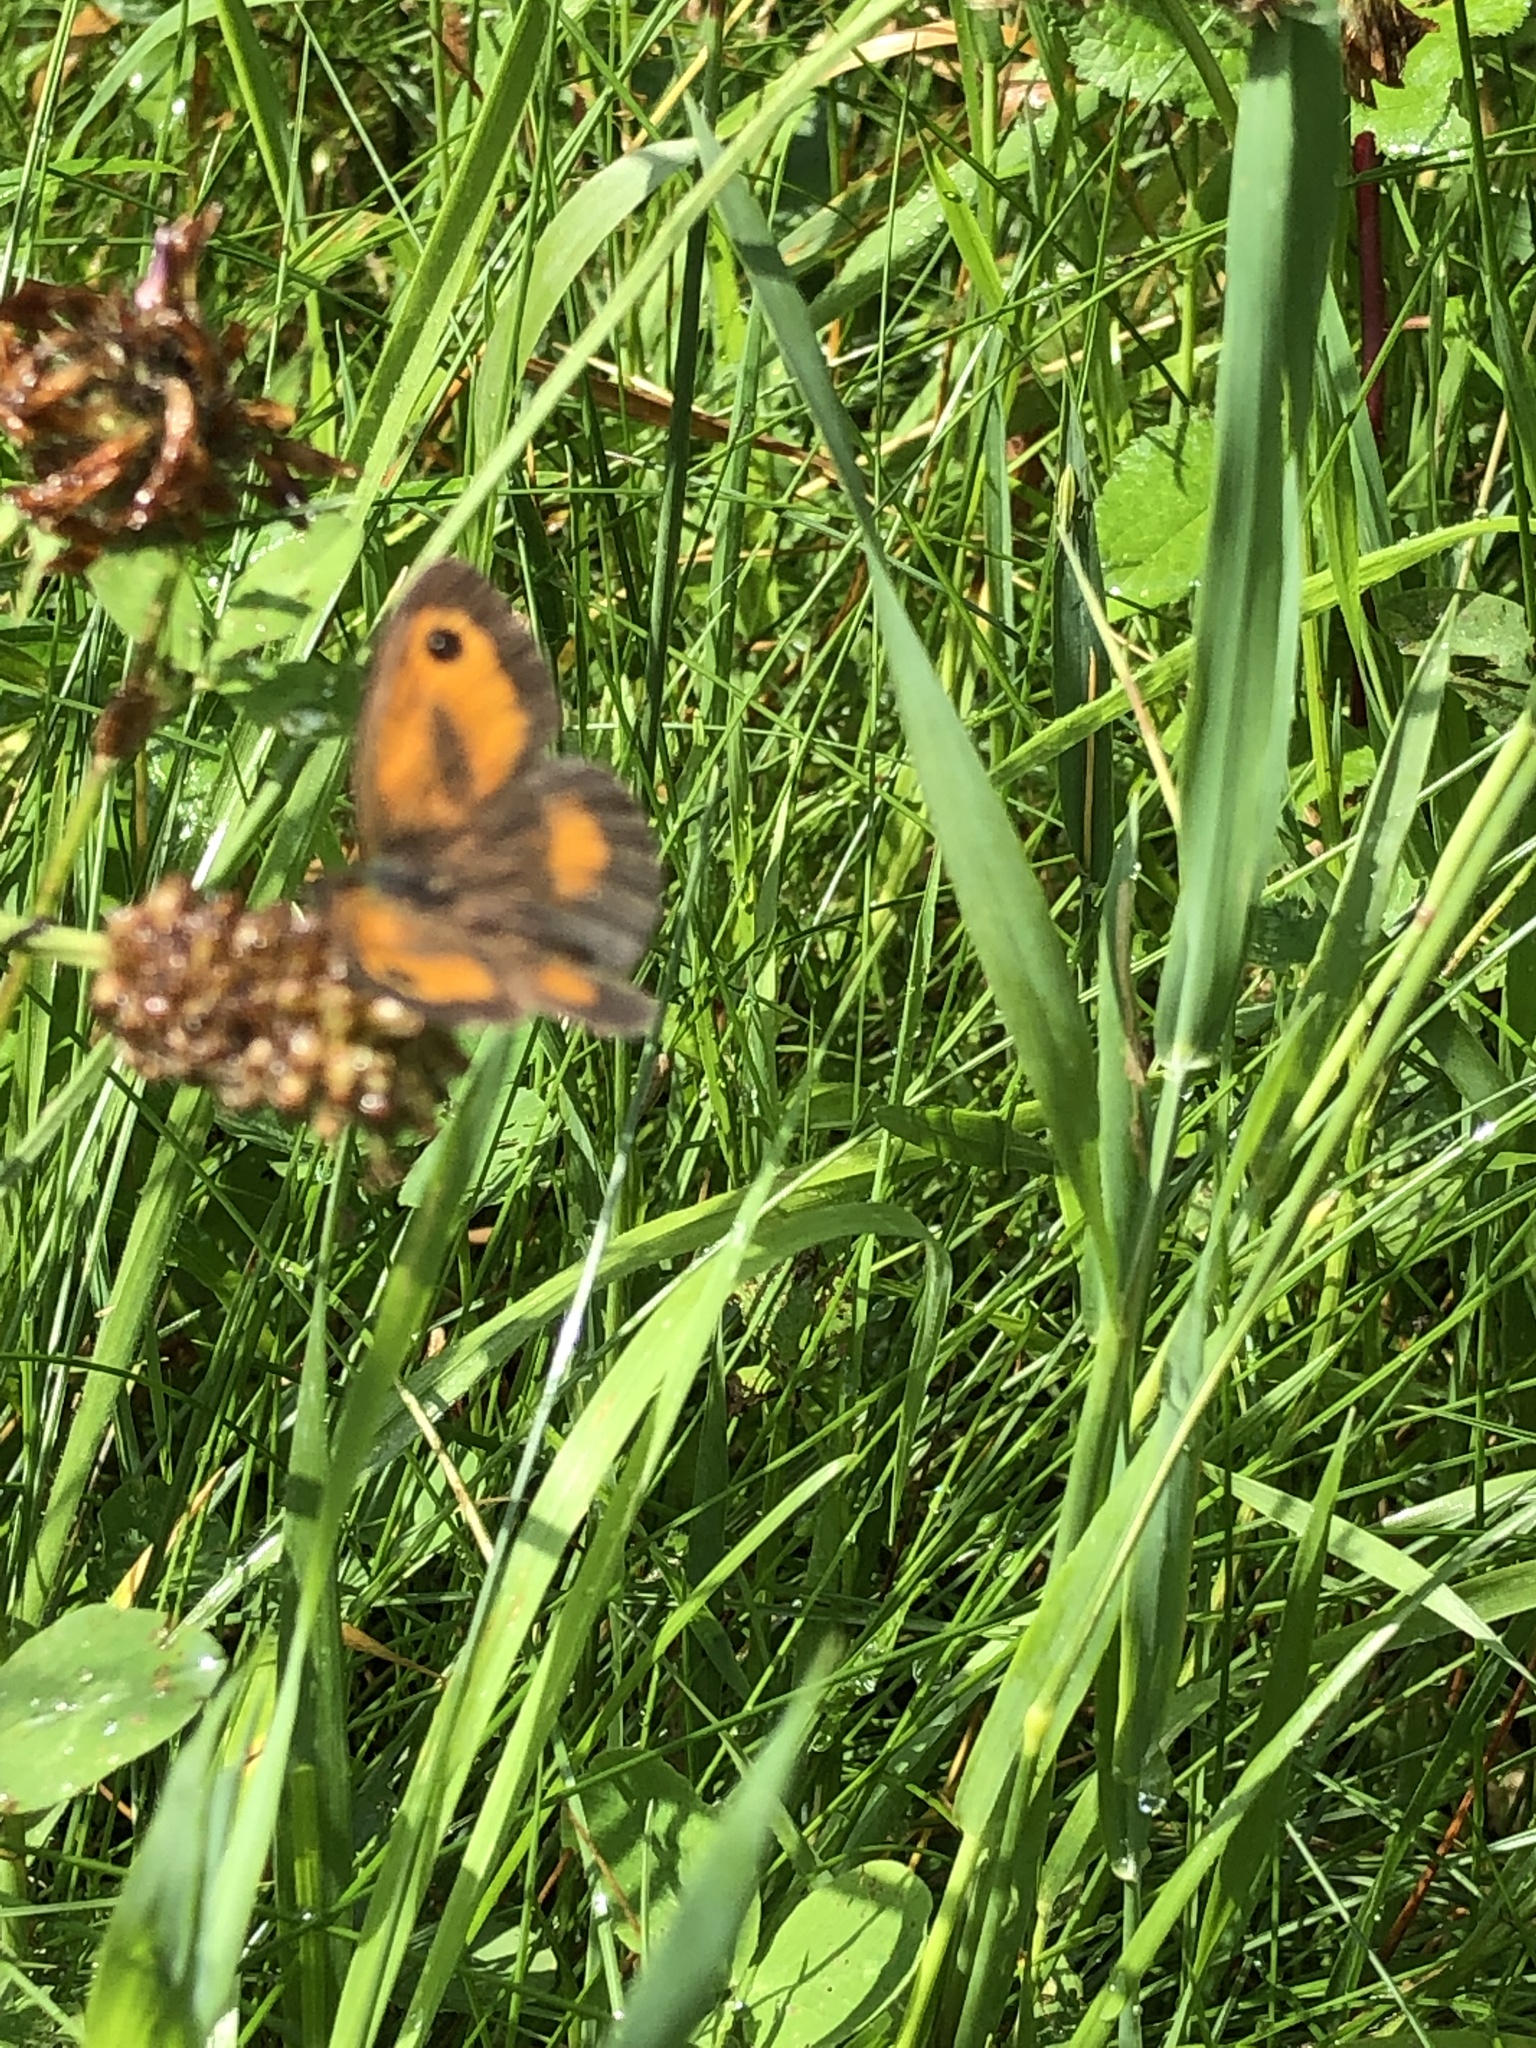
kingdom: Animalia
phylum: Arthropoda
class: Insecta
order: Lepidoptera
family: Nymphalidae
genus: Pyronia
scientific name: Pyronia tithonus
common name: Gatekeeper
